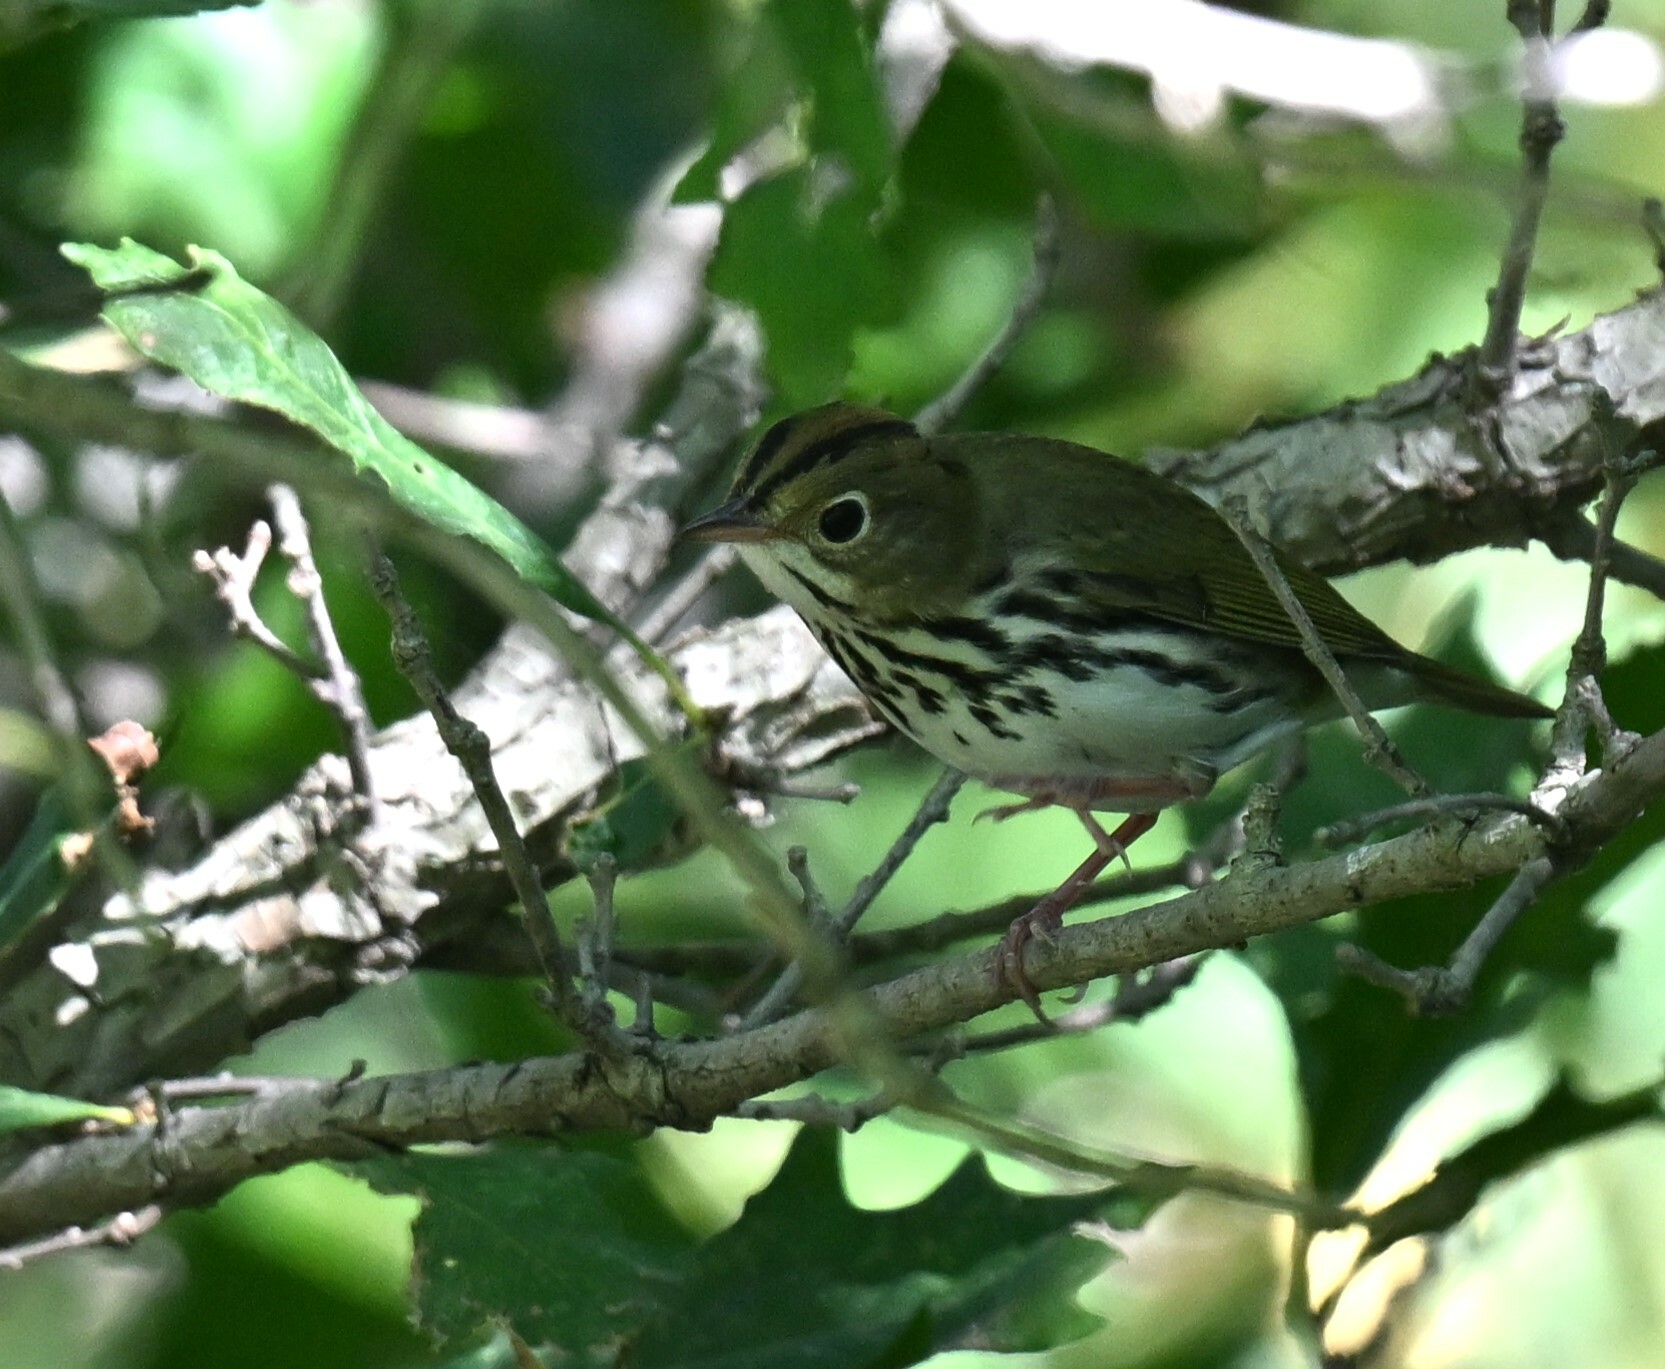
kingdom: Animalia
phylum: Chordata
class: Aves
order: Passeriformes
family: Parulidae
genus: Seiurus
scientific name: Seiurus aurocapilla
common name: Ovenbird
